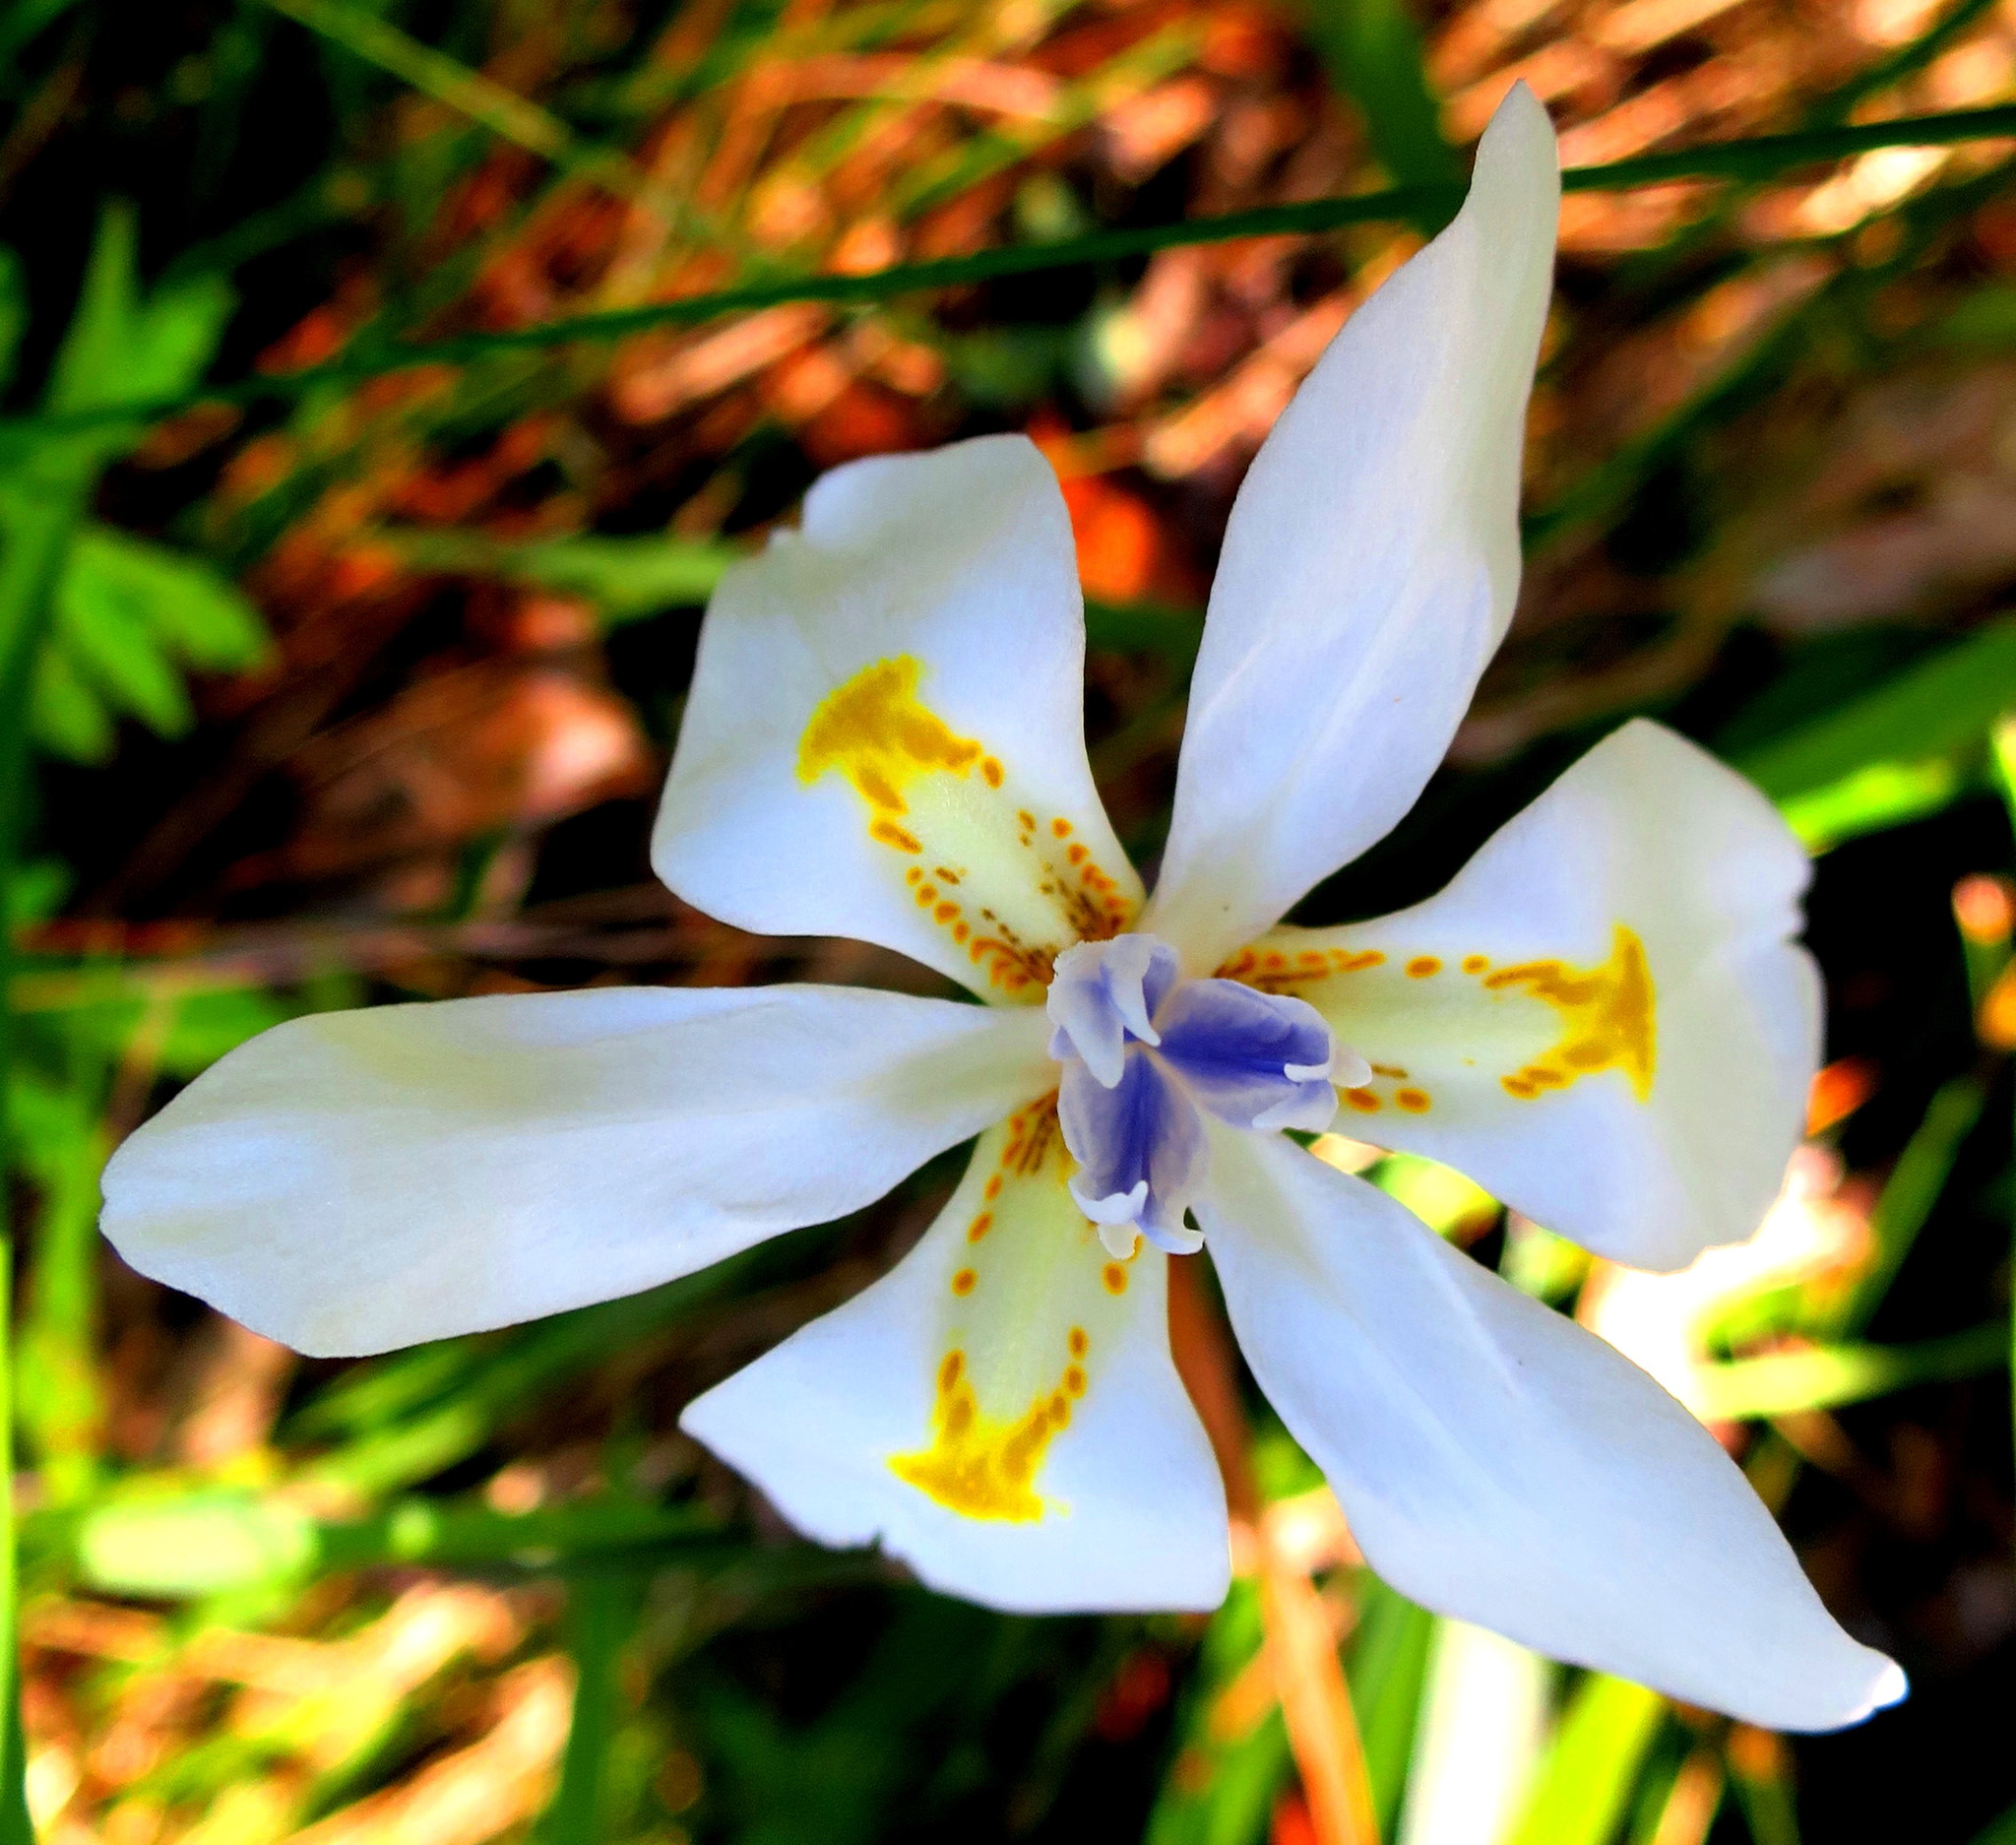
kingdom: Plantae
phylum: Tracheophyta
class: Liliopsida
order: Asparagales
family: Iridaceae
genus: Dietes
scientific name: Dietes iridioides
